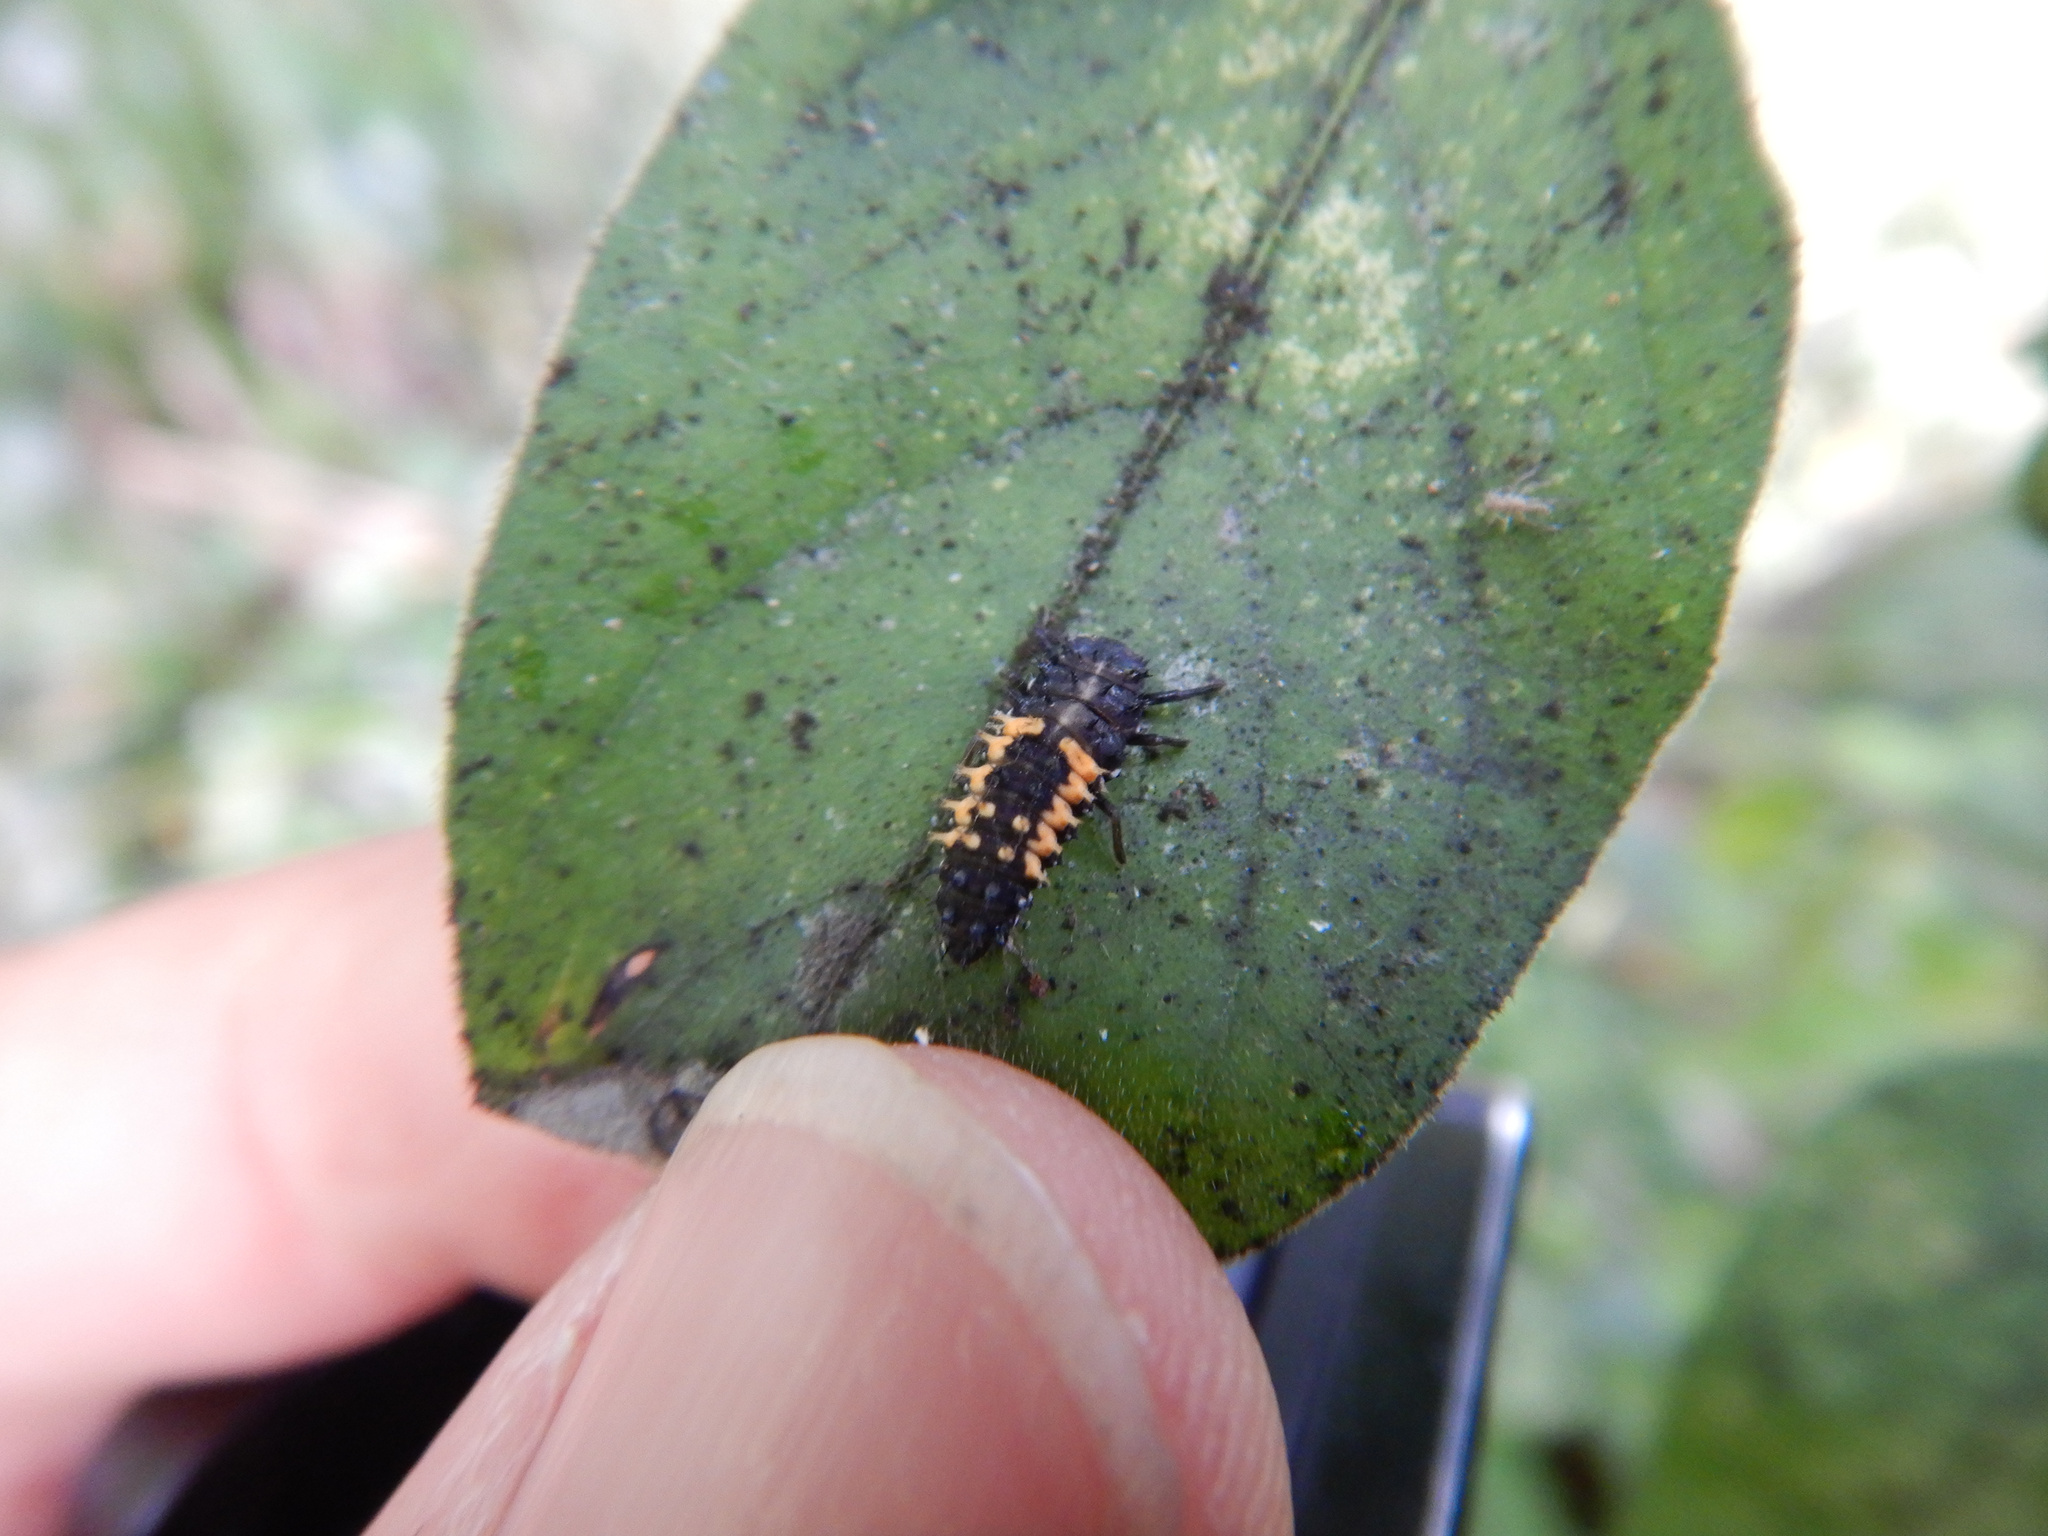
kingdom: Animalia
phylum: Arthropoda
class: Insecta
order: Coleoptera
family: Coccinellidae
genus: Harmonia
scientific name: Harmonia axyridis
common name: Harlequin ladybird
